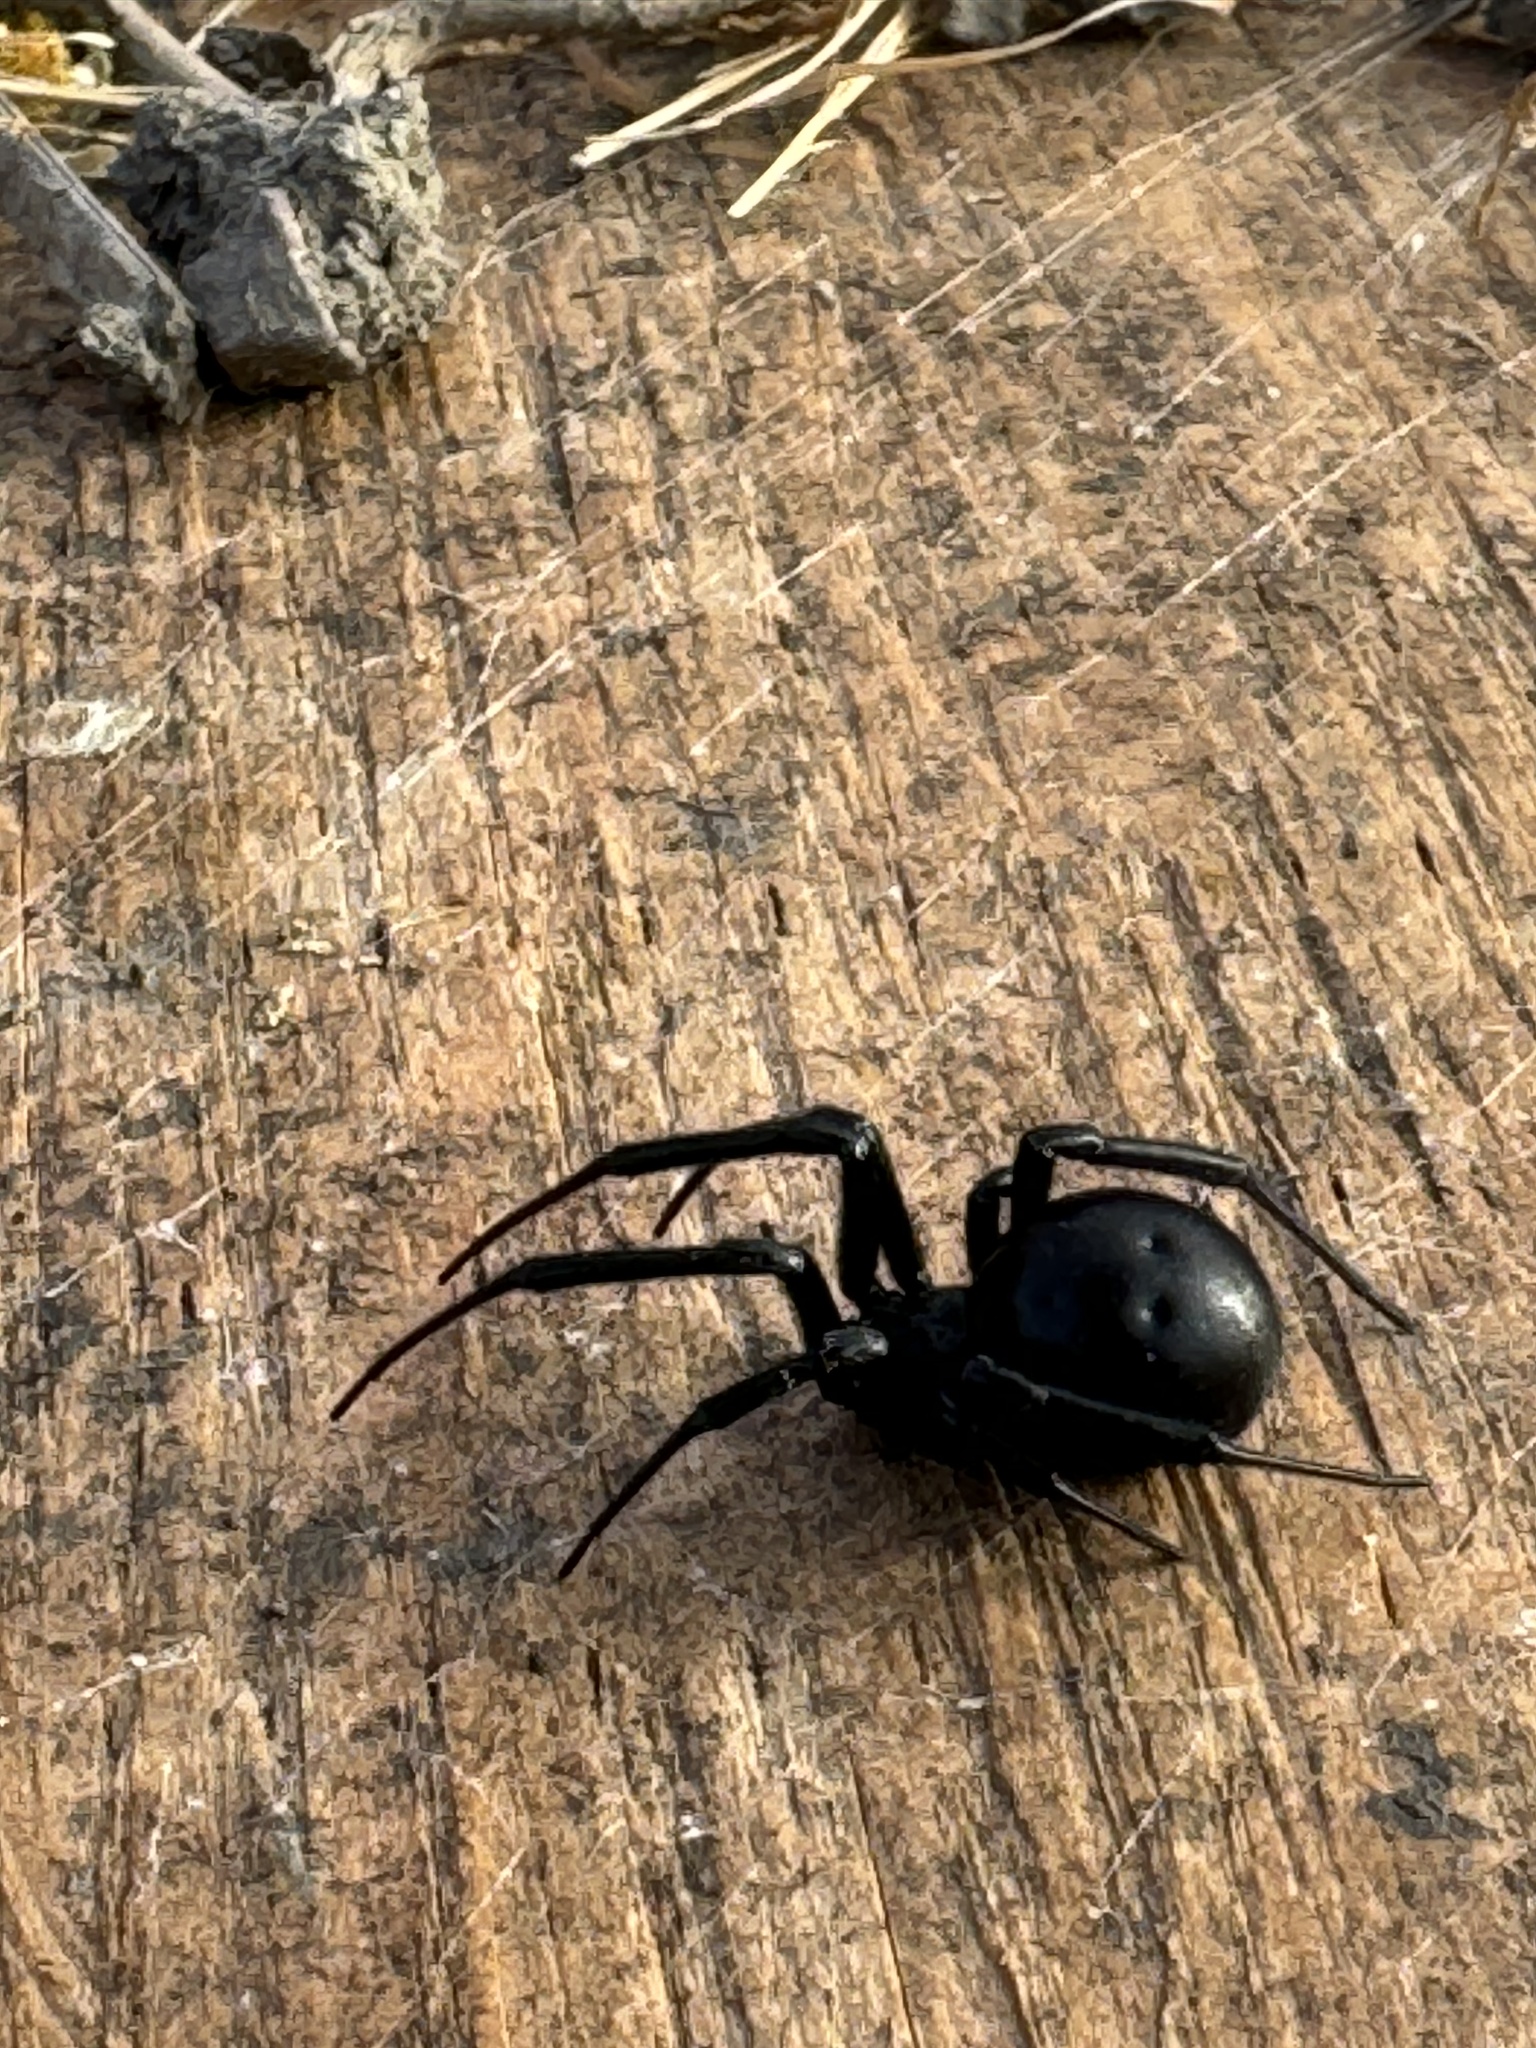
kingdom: Animalia
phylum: Arthropoda
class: Arachnida
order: Araneae
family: Theridiidae
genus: Latrodectus
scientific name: Latrodectus hesperus
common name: Western black widow
